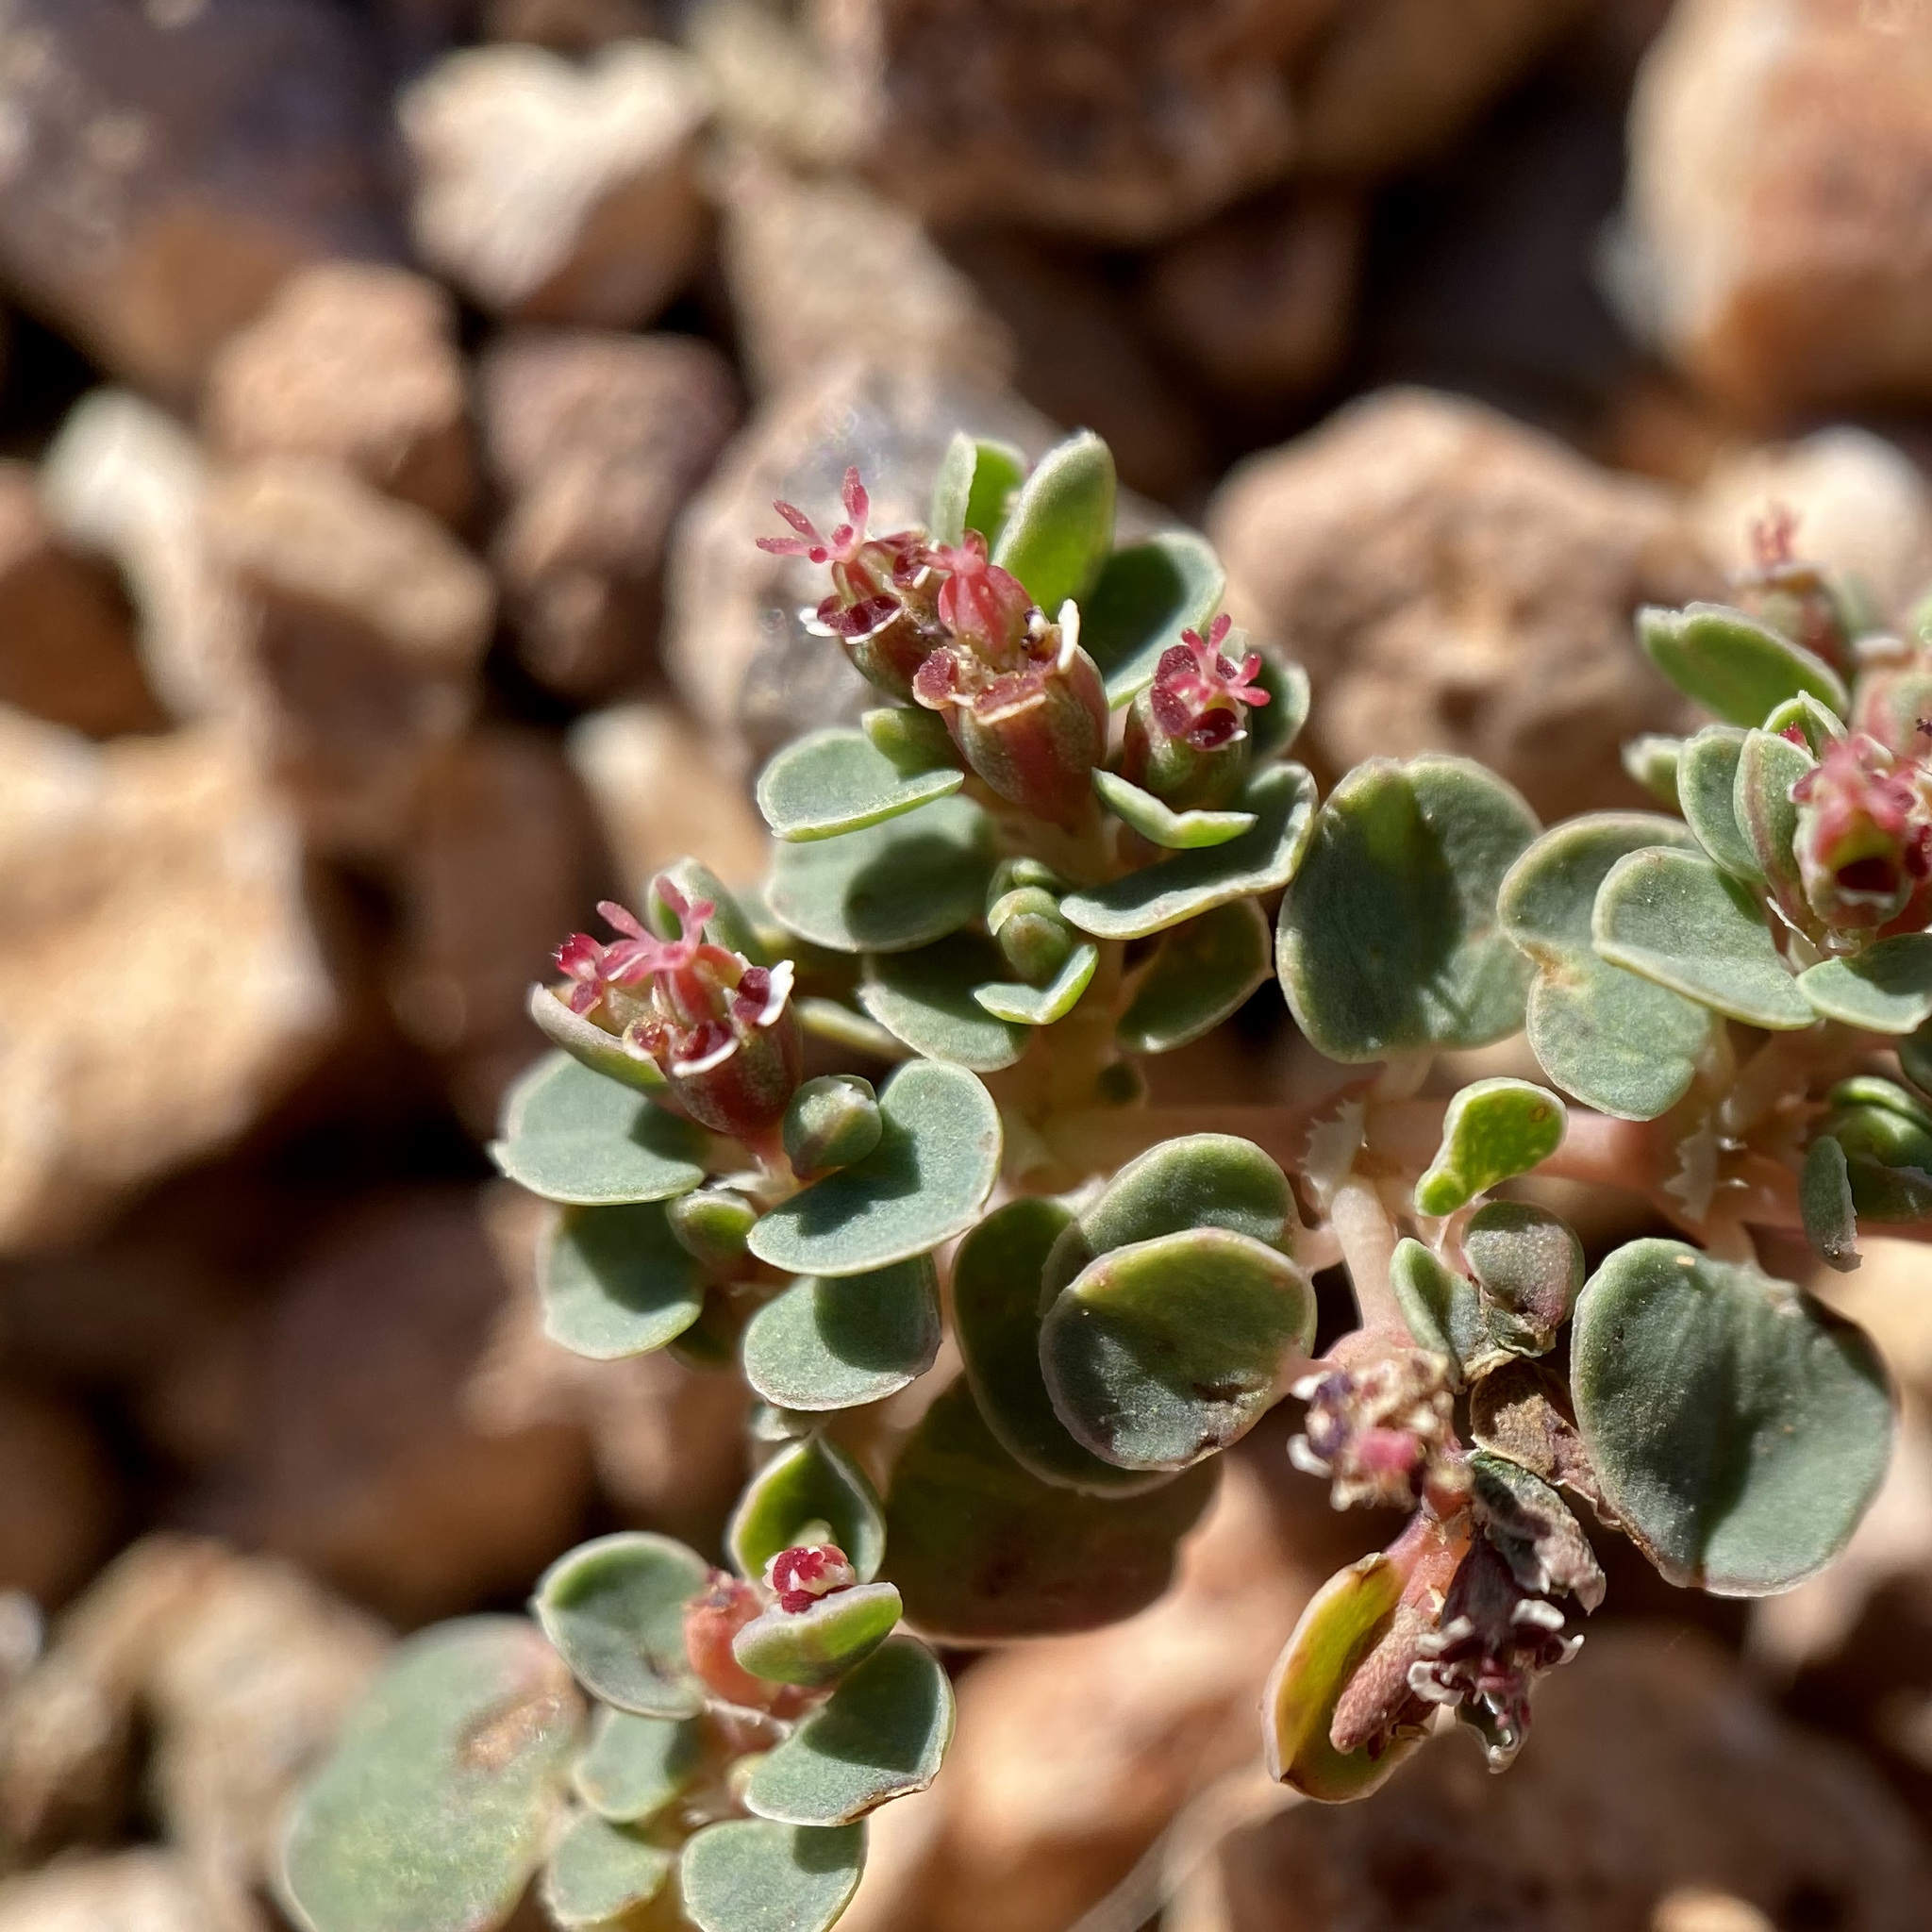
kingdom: Plantae
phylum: Tracheophyta
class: Magnoliopsida
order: Malpighiales
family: Euphorbiaceae
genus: Euphorbia
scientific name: Euphorbia albomarginata
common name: Whitemargin sandmat
